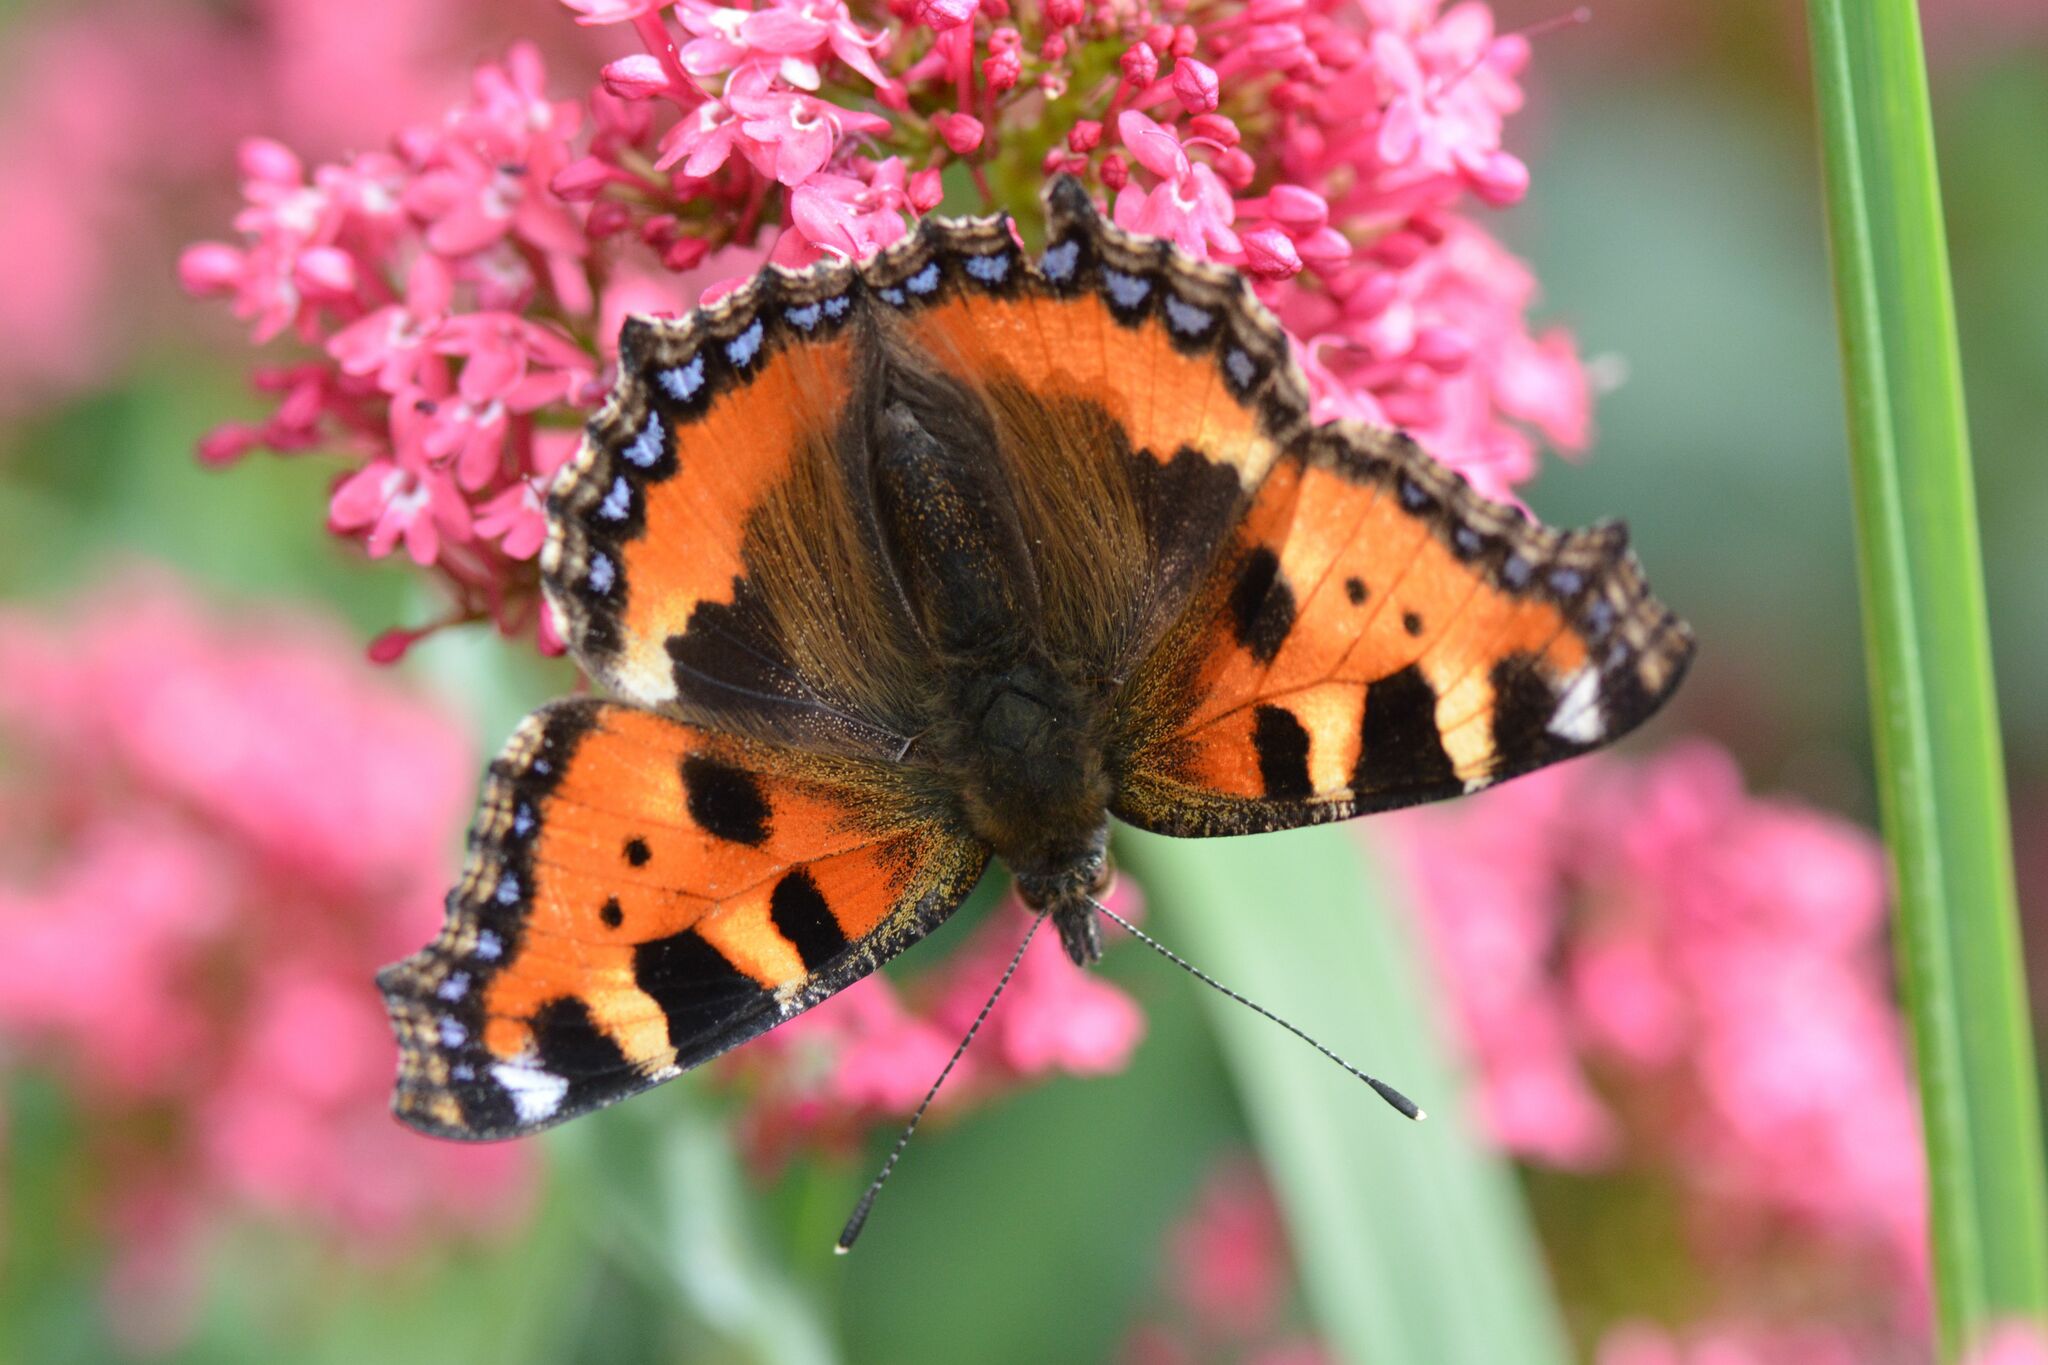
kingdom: Animalia
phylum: Arthropoda
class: Insecta
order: Lepidoptera
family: Nymphalidae
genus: Aglais
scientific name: Aglais urticae
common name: Small tortoiseshell
